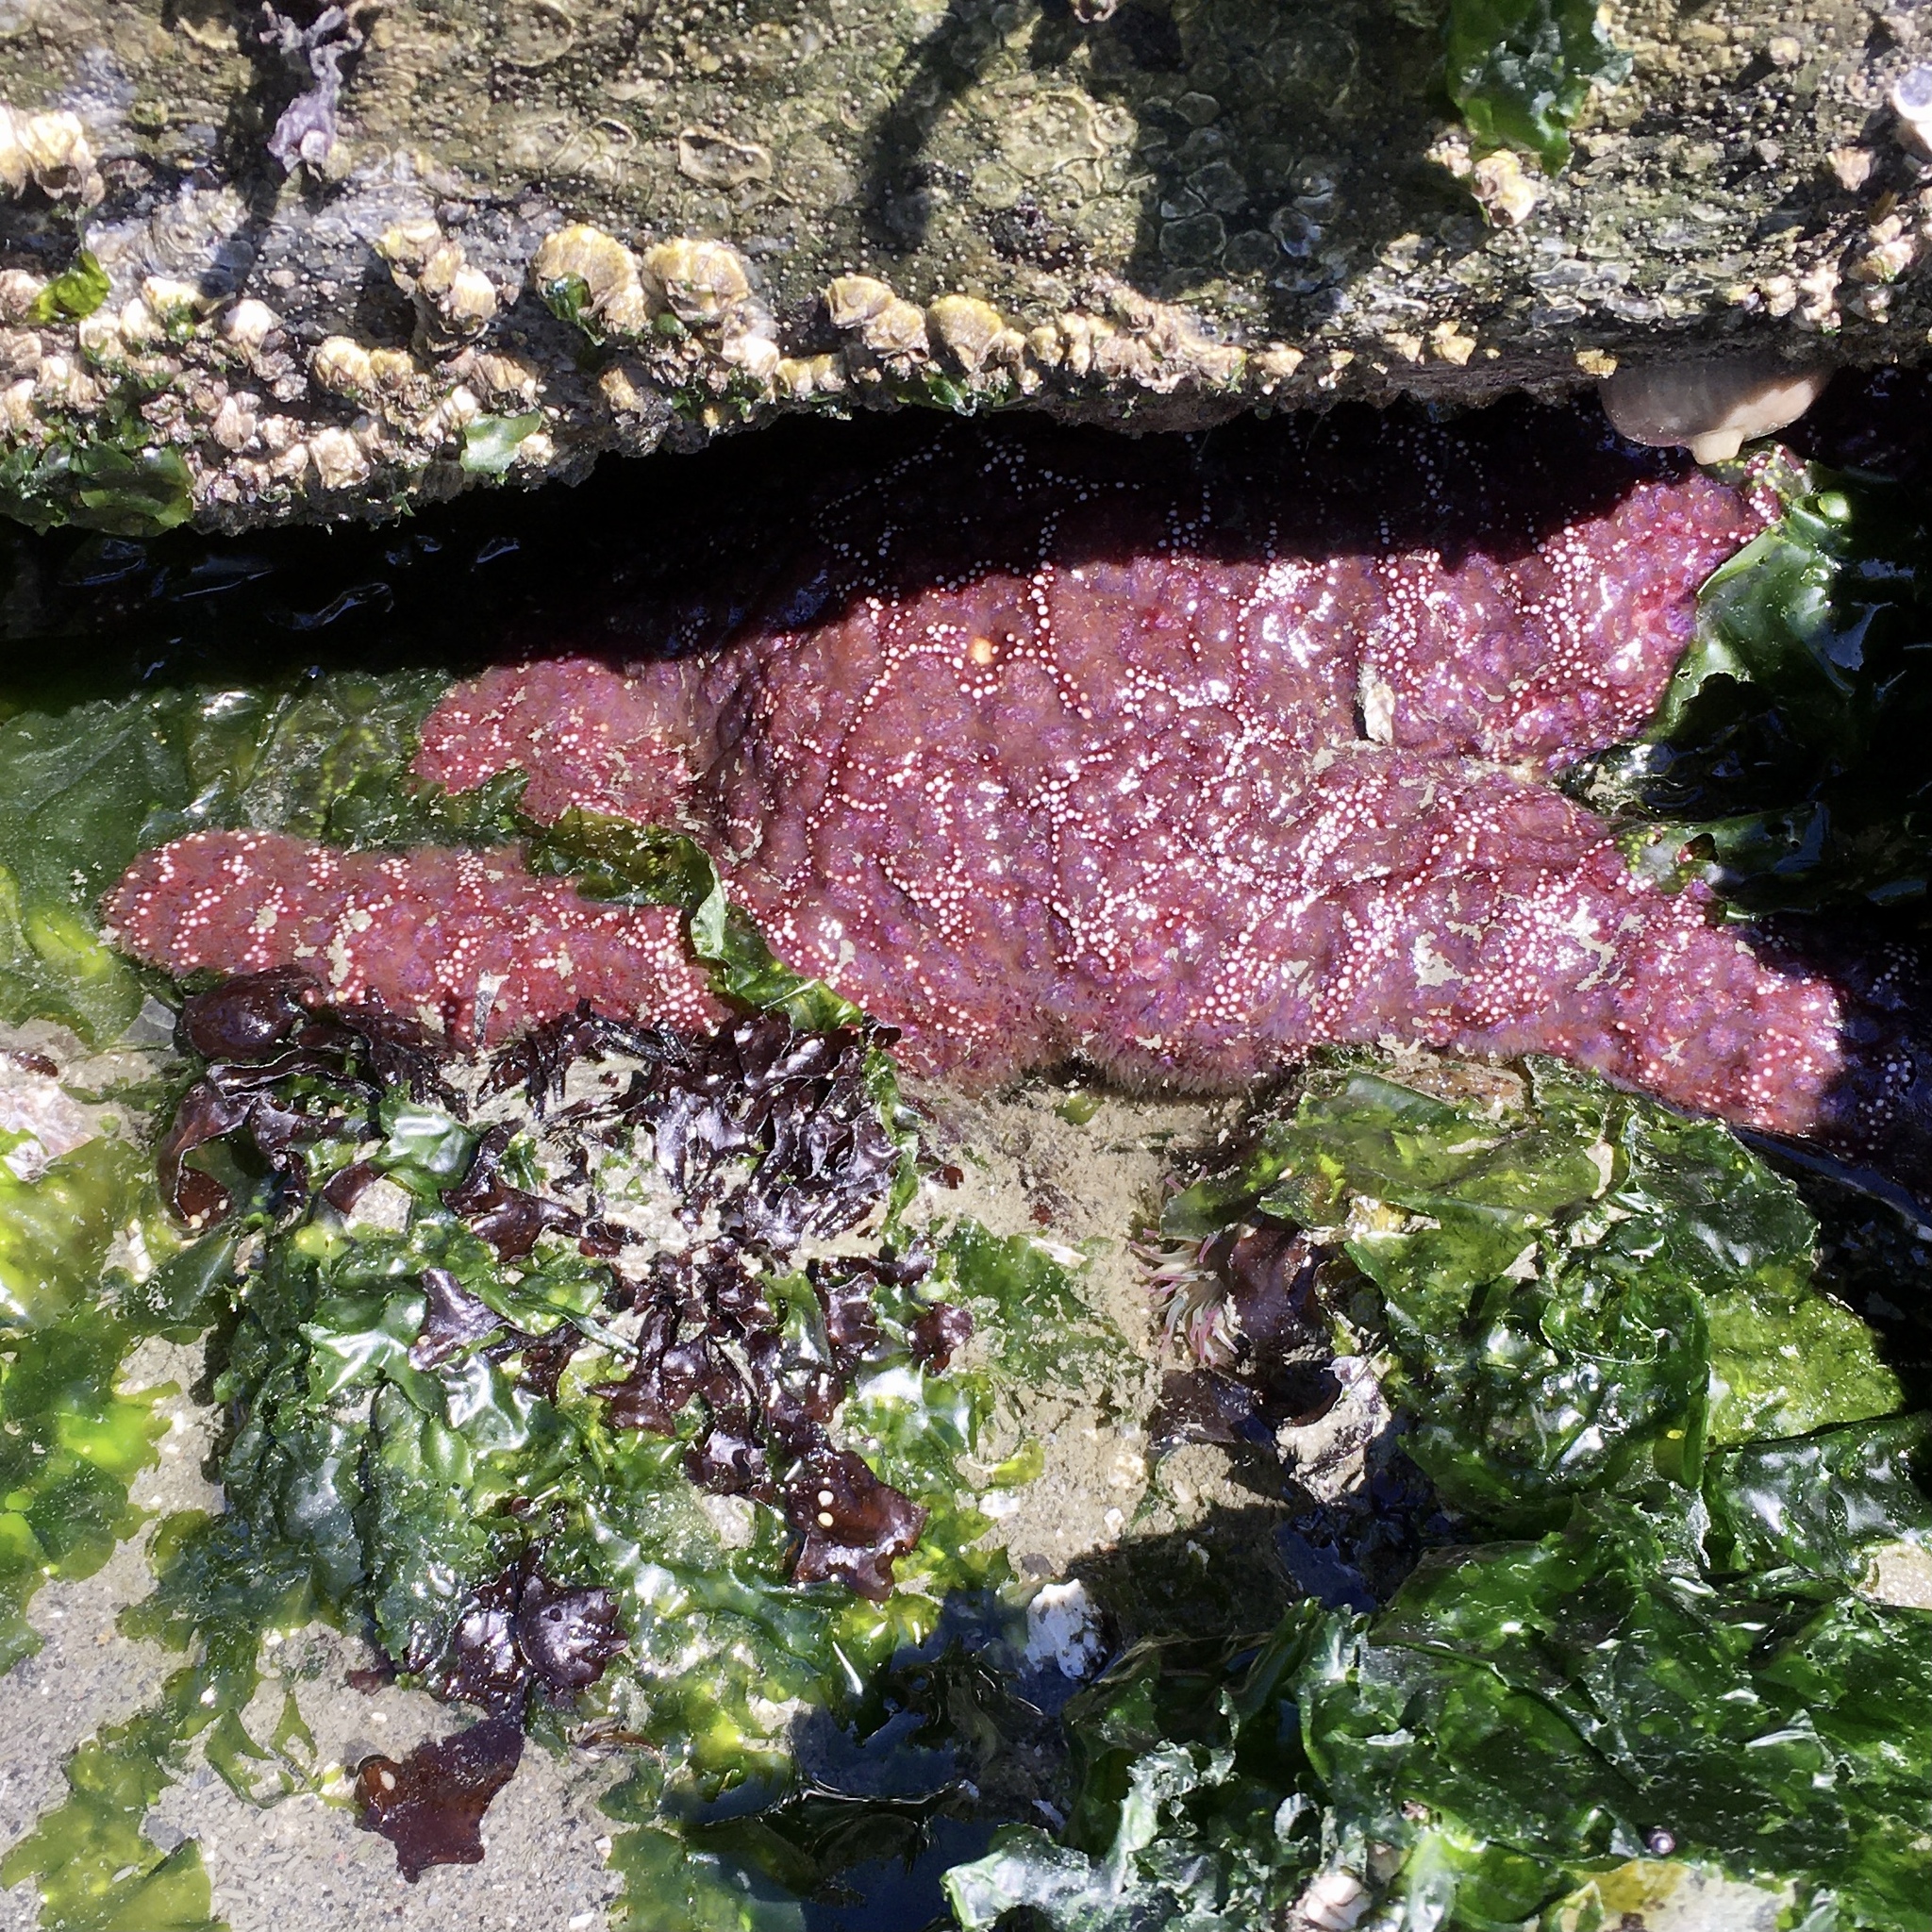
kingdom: Animalia
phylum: Echinodermata
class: Asteroidea
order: Forcipulatida
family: Asteriidae
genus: Pisaster
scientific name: Pisaster ochraceus
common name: Ochre stars
